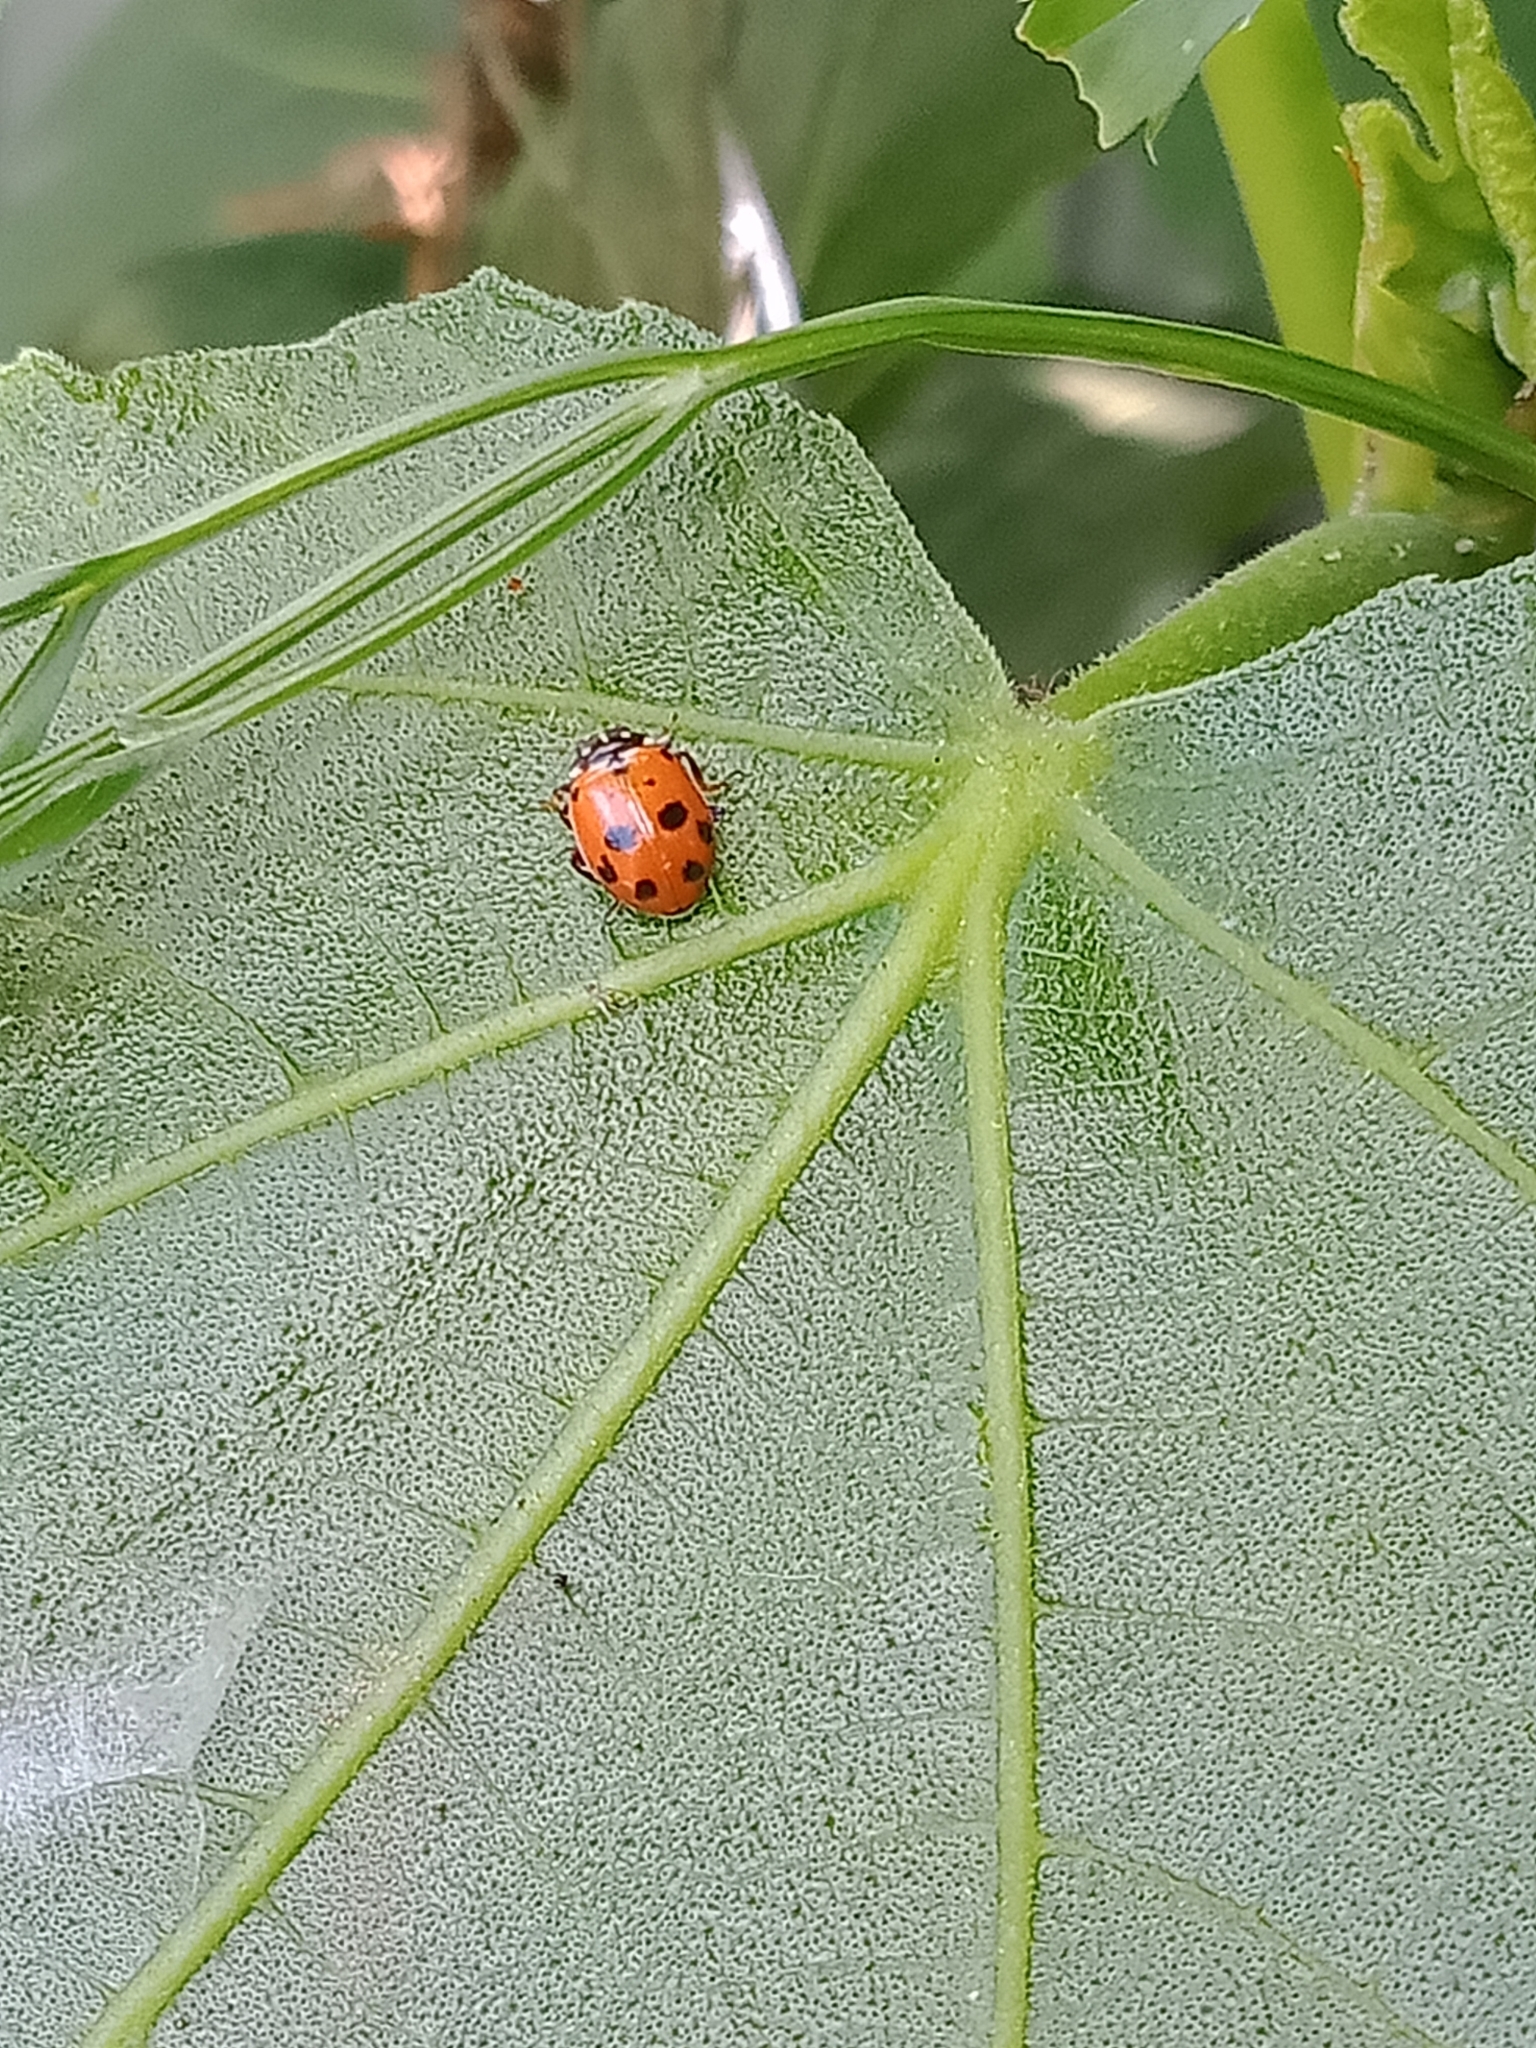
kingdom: Animalia
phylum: Arthropoda
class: Insecta
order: Coleoptera
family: Coccinellidae
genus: Hippodamia
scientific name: Hippodamia variegata
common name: Ladybird beetle
